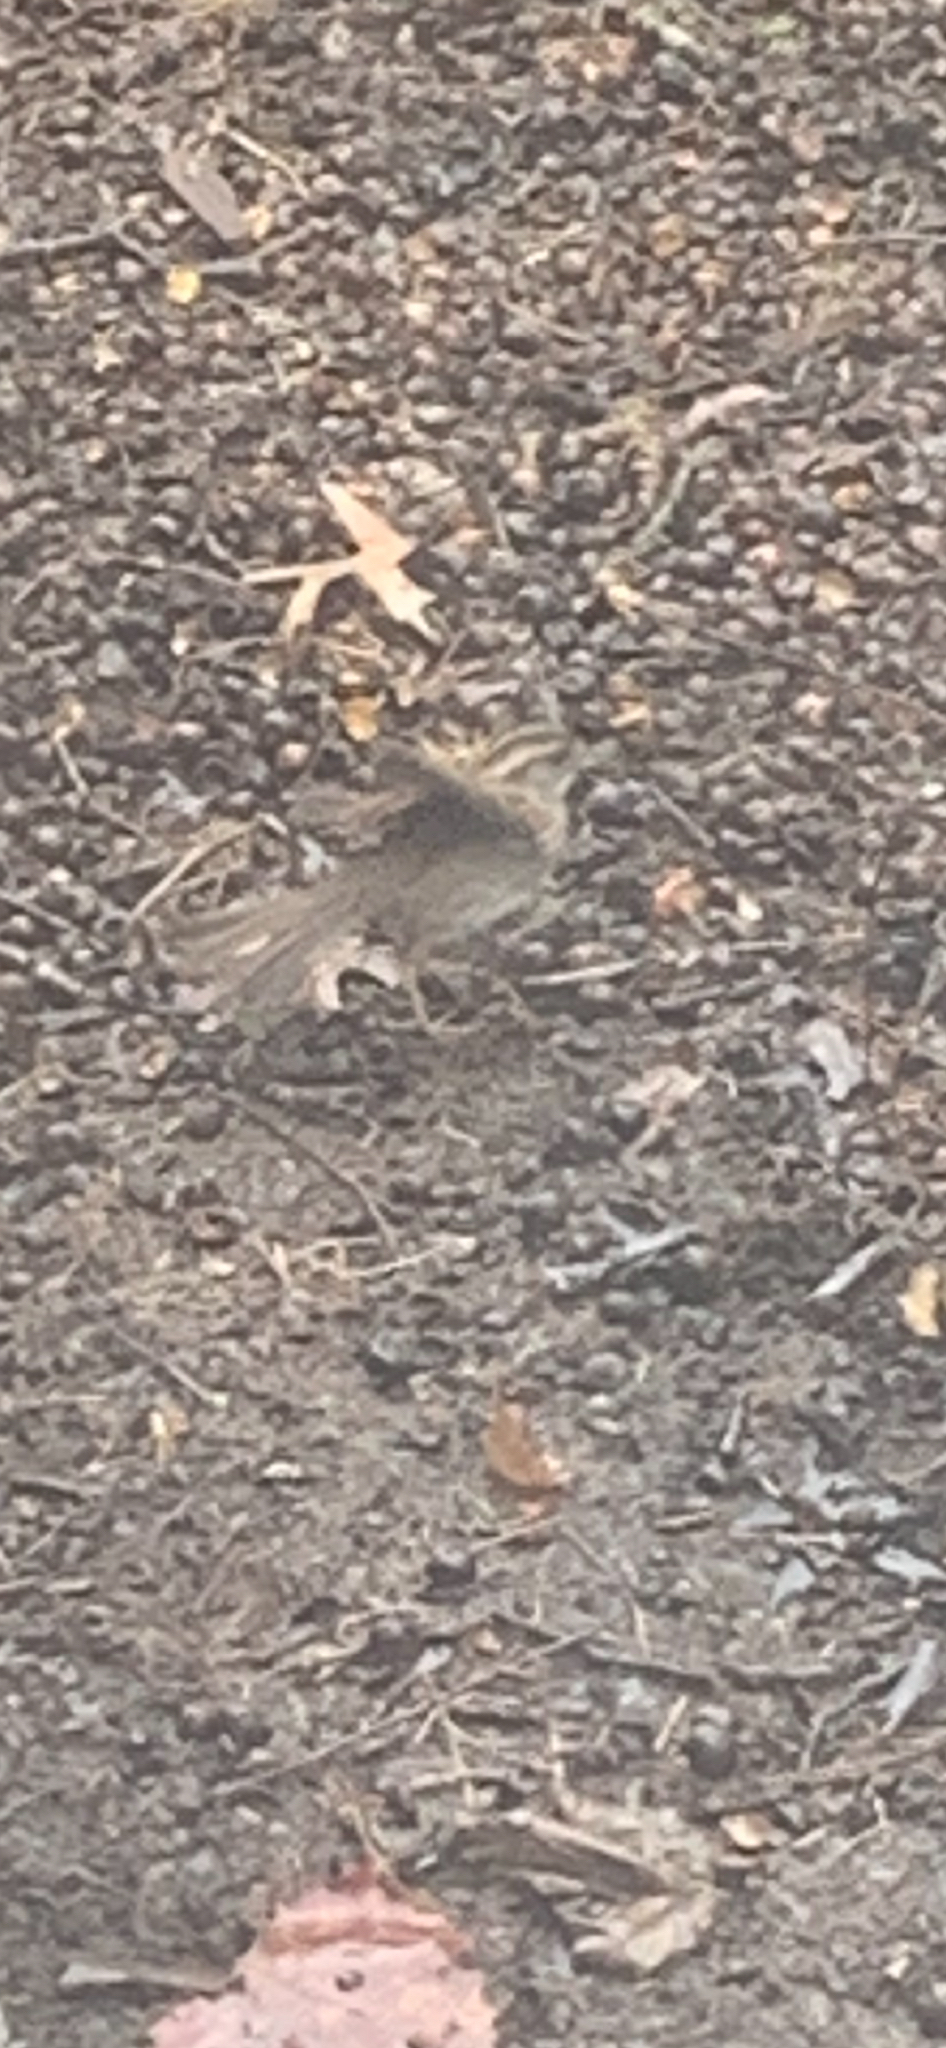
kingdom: Animalia
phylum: Chordata
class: Aves
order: Passeriformes
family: Passerellidae
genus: Zonotrichia
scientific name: Zonotrichia albicollis
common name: White-throated sparrow
